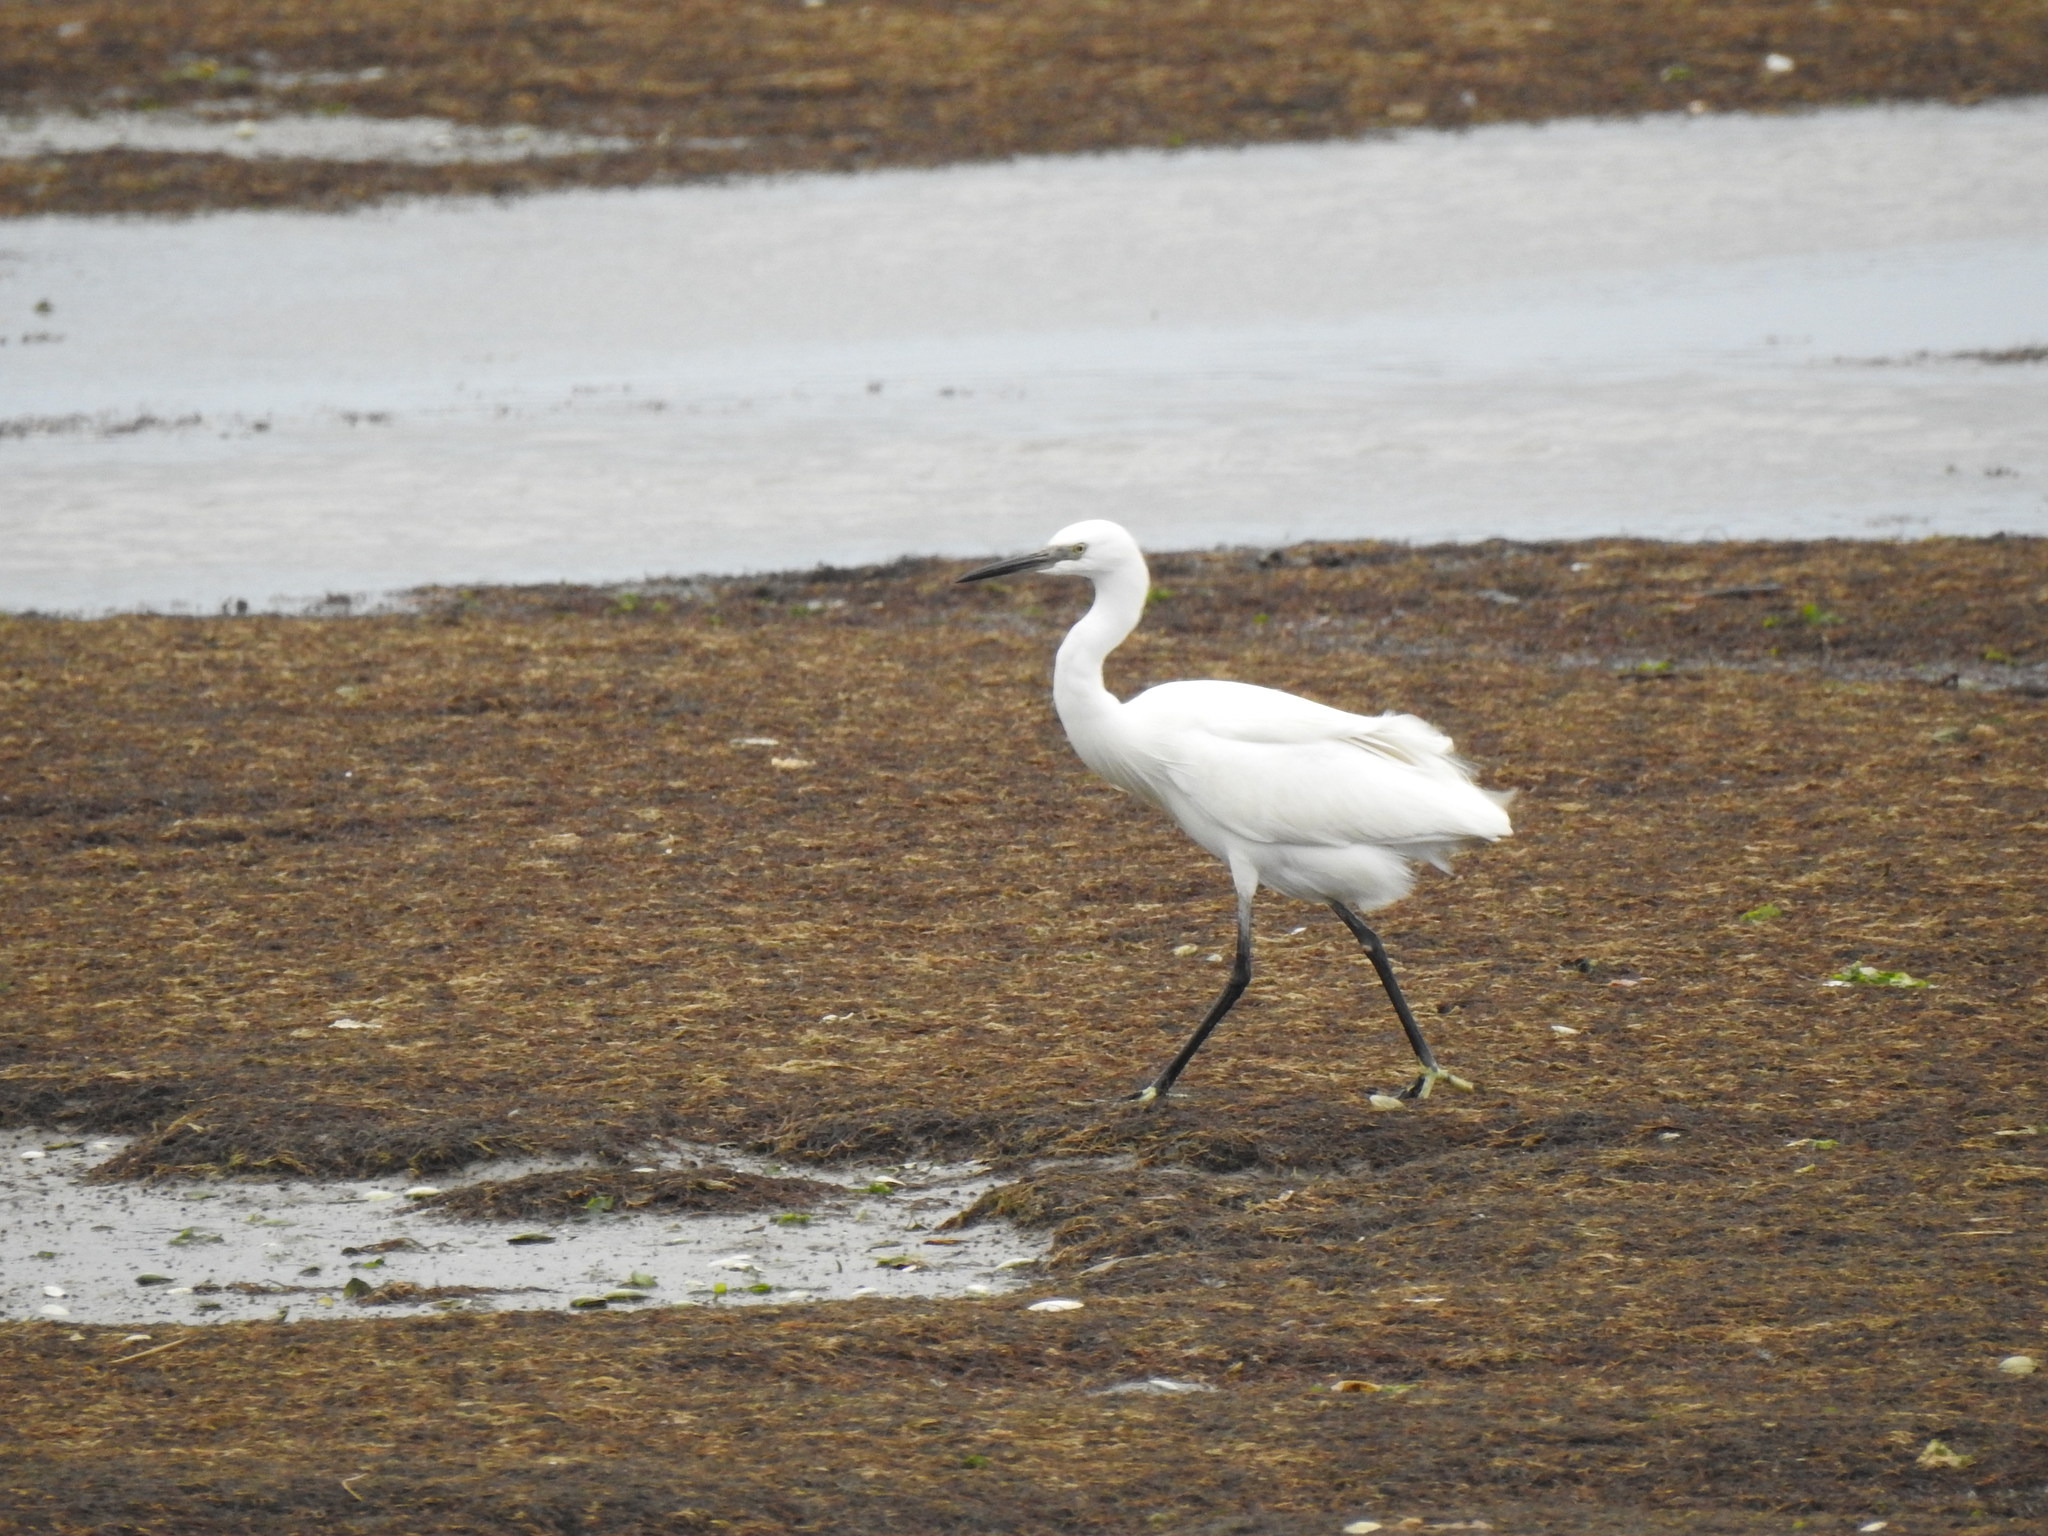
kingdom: Animalia
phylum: Chordata
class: Aves
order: Pelecaniformes
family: Ardeidae
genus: Egretta
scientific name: Egretta garzetta
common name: Little egret
